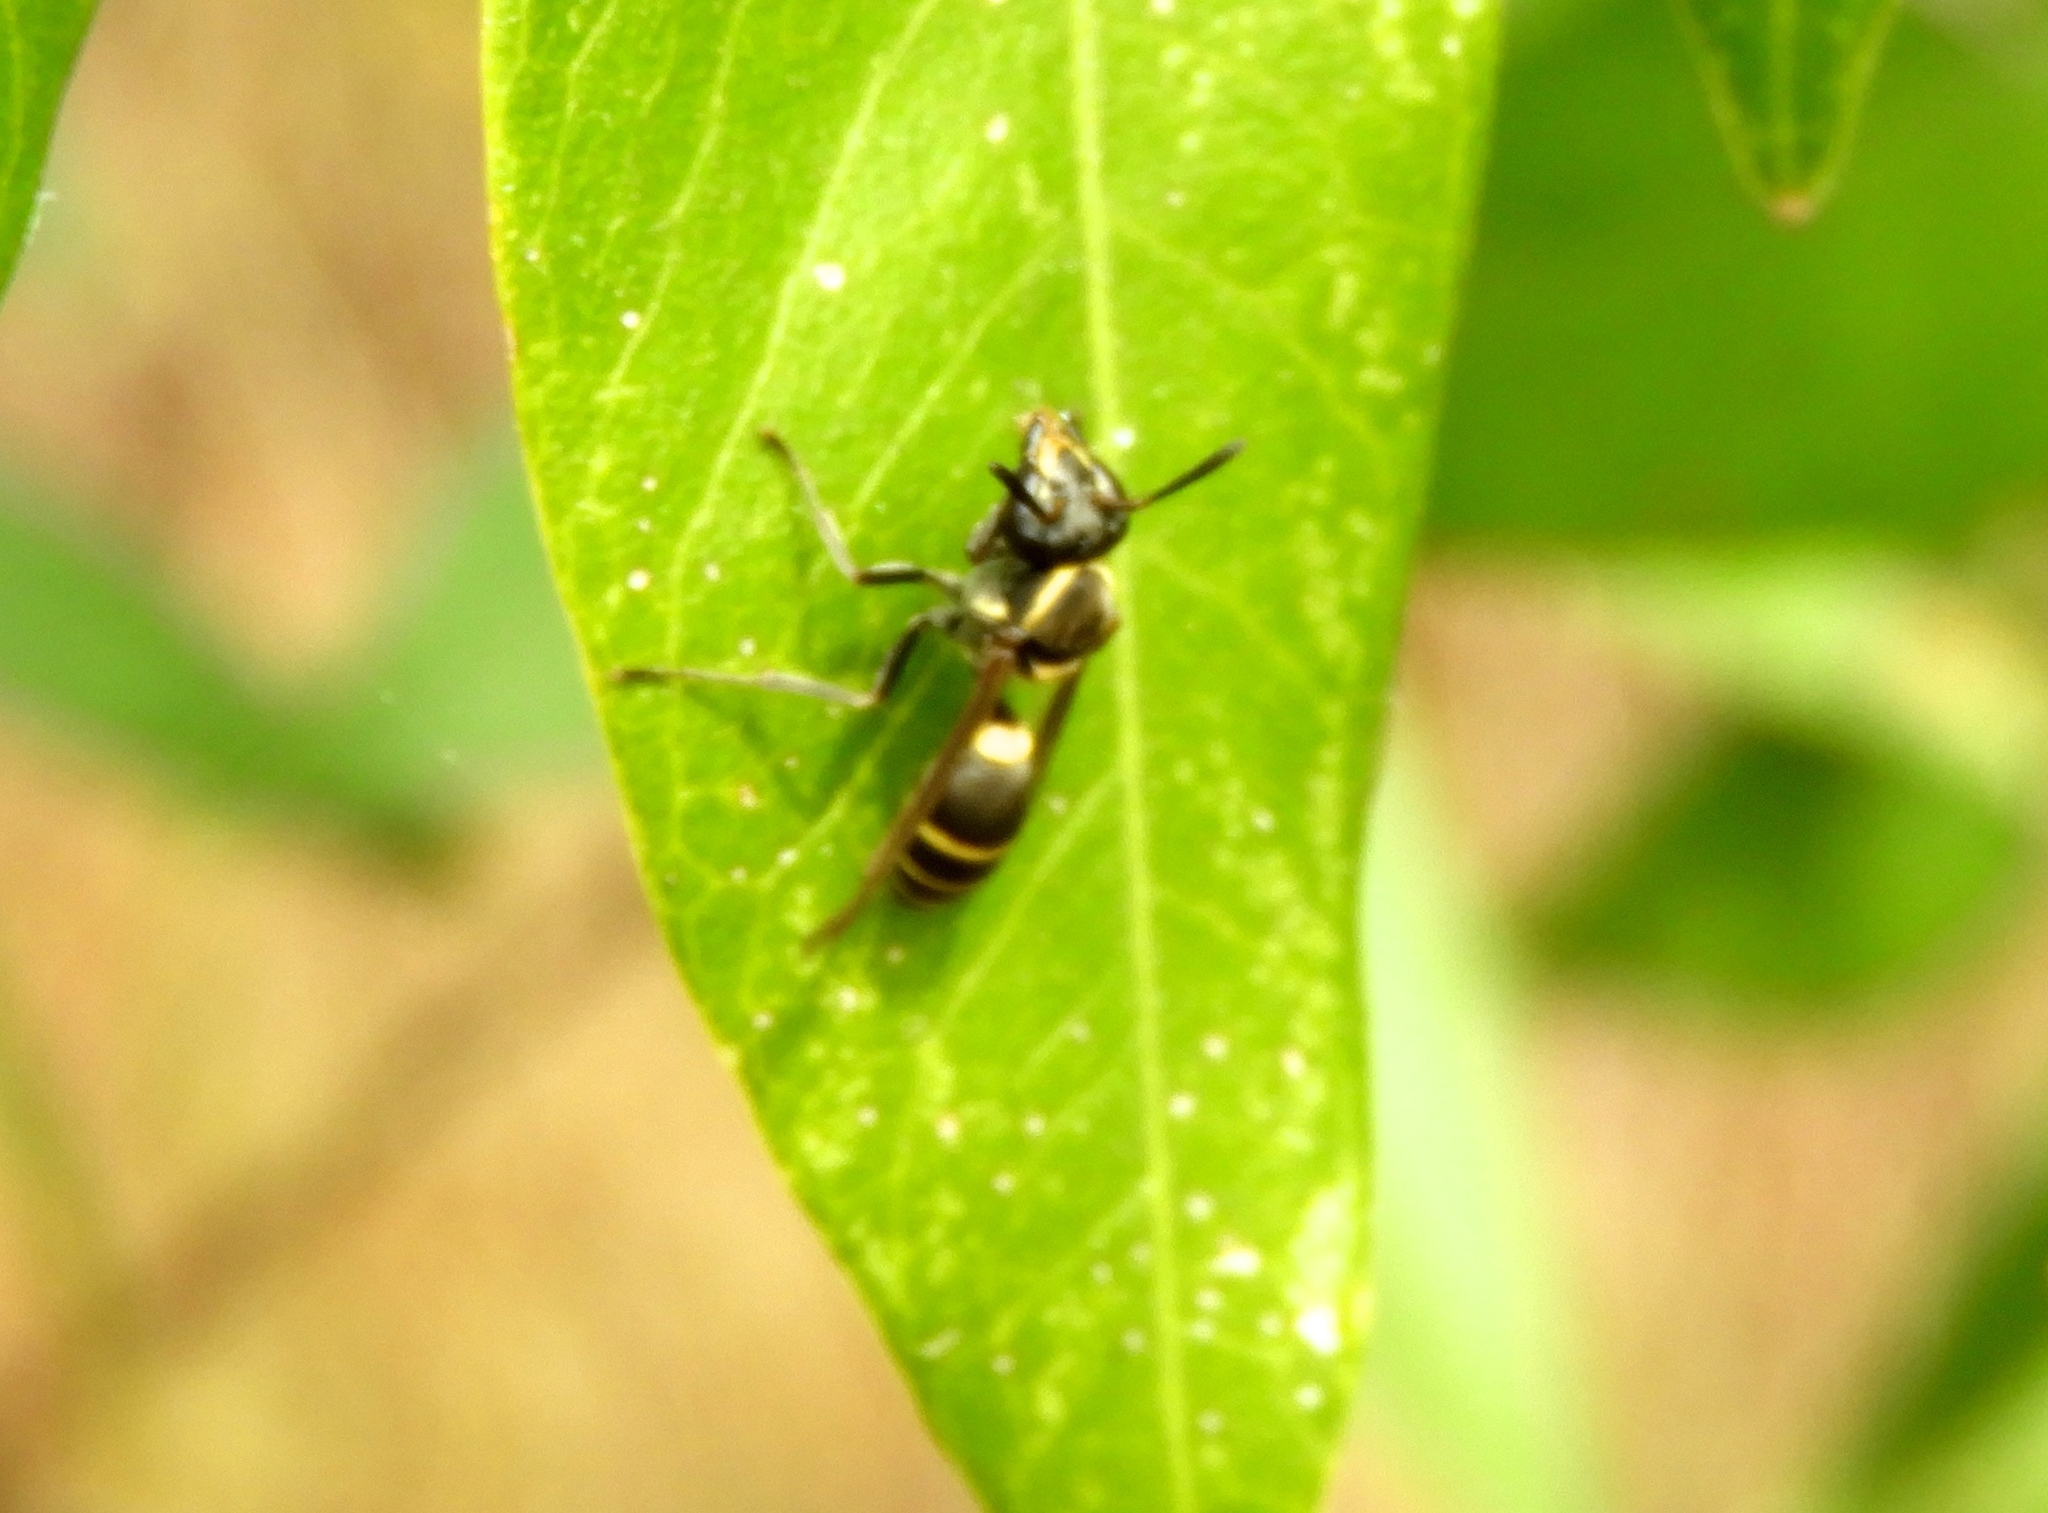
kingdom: Animalia
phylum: Arthropoda
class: Insecta
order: Hymenoptera
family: Eumenidae
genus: Polybia
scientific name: Polybia occidentalis
